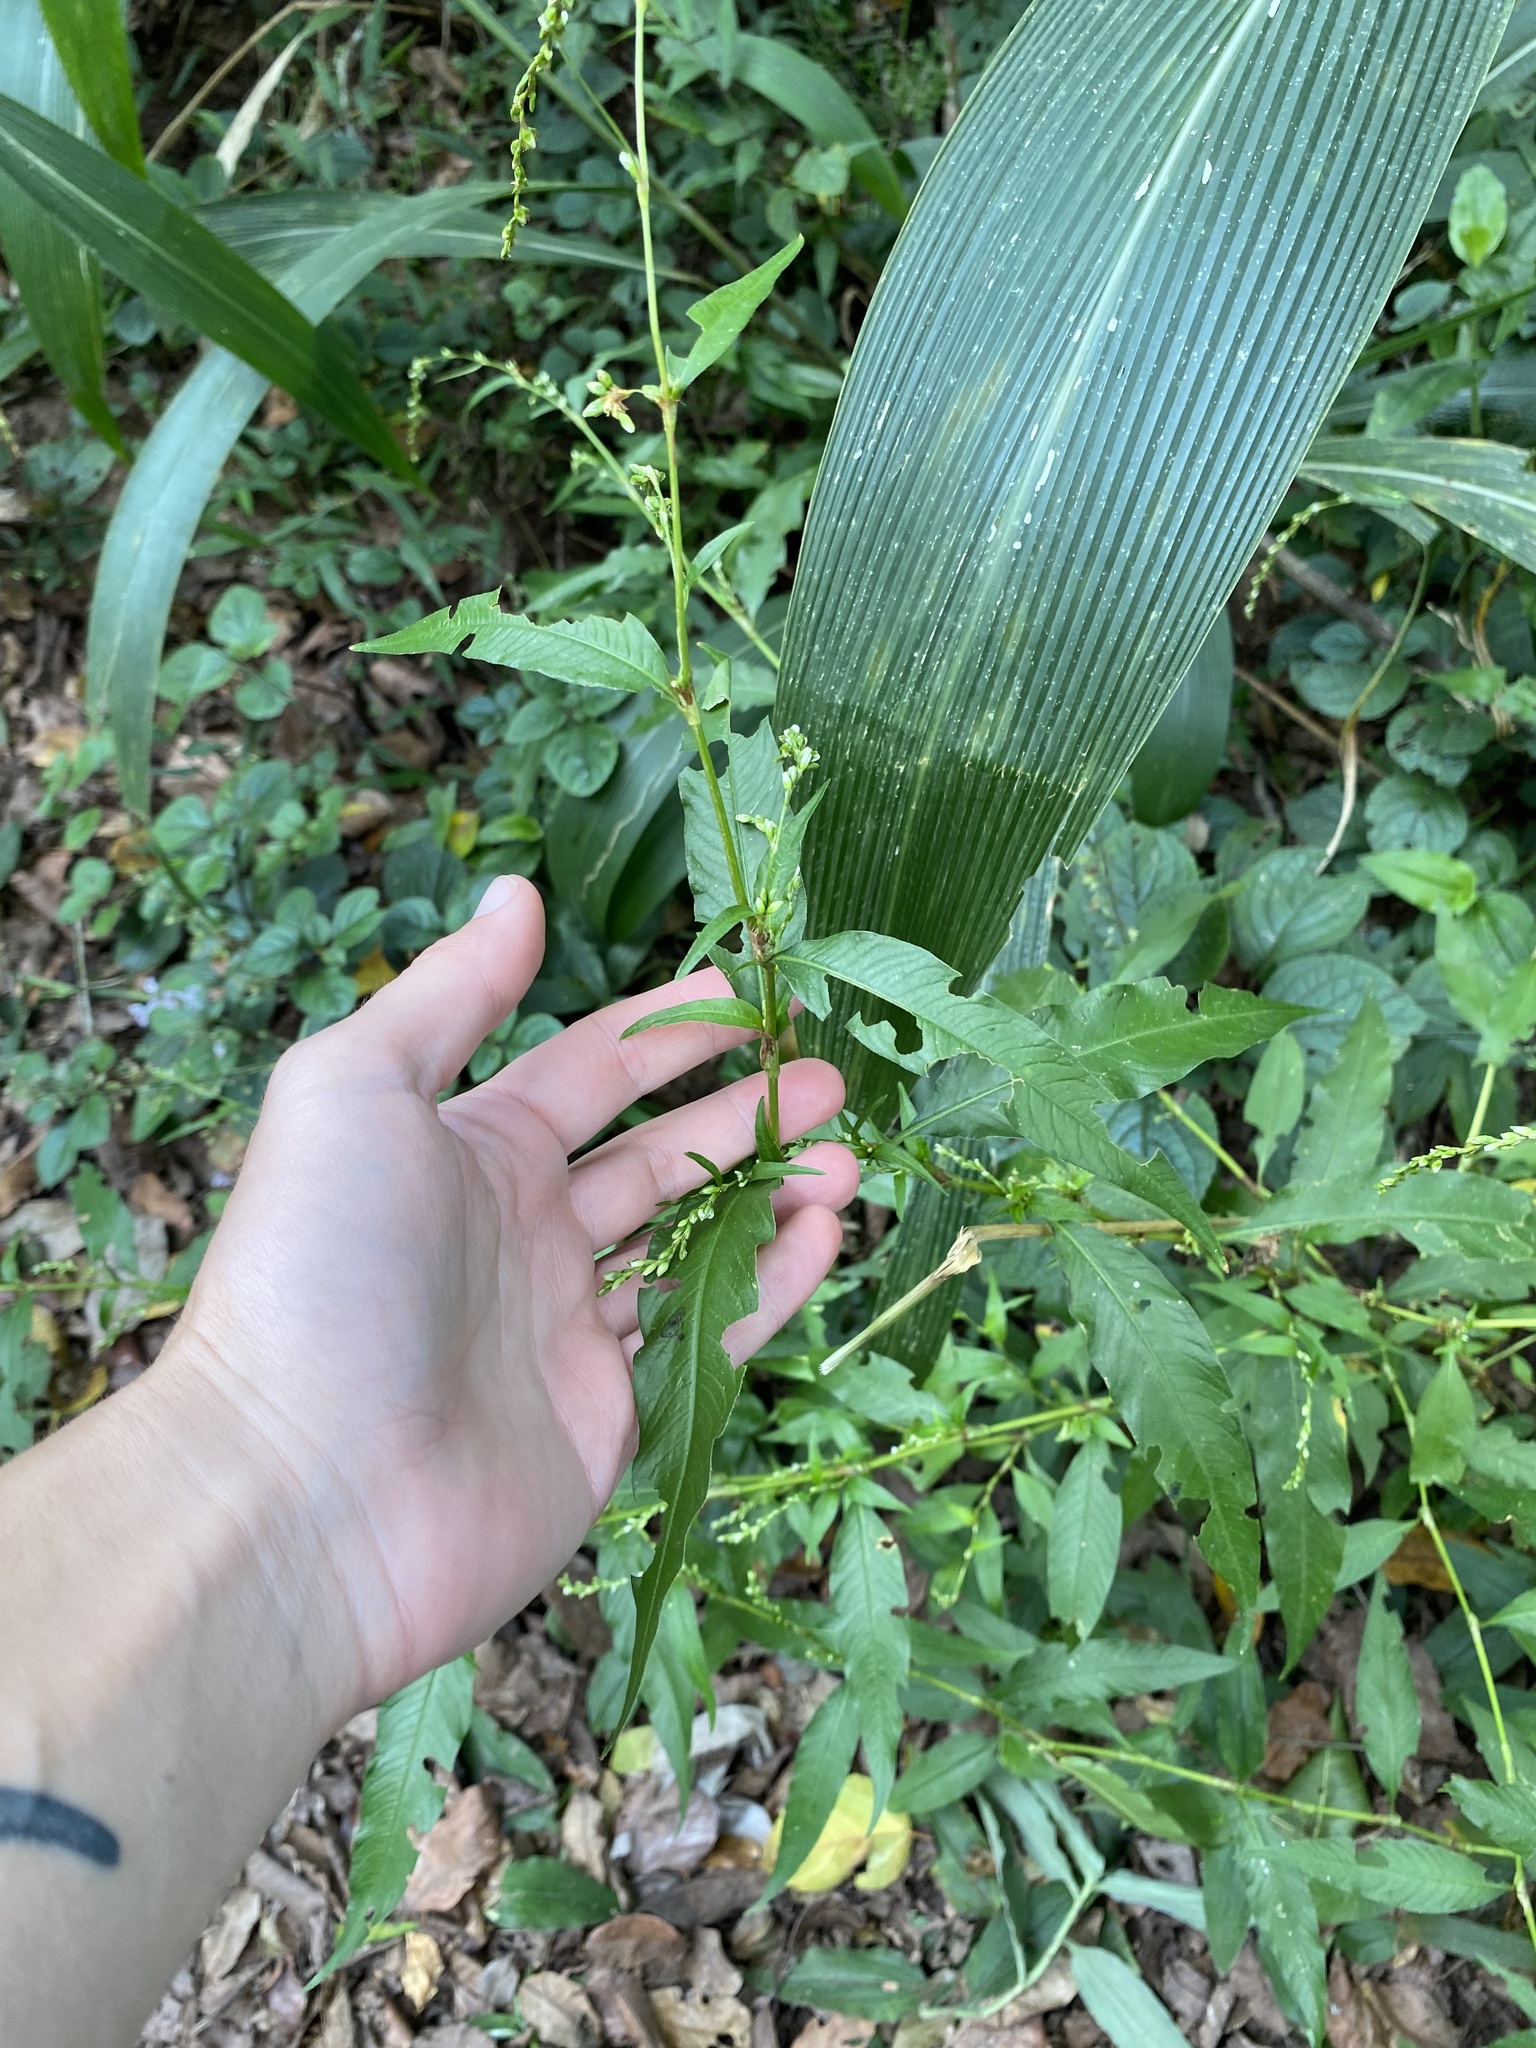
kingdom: Plantae
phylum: Tracheophyta
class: Magnoliopsida
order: Caryophyllales
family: Polygonaceae
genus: Persicaria
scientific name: Persicaria hydropiper
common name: Water-pepper
